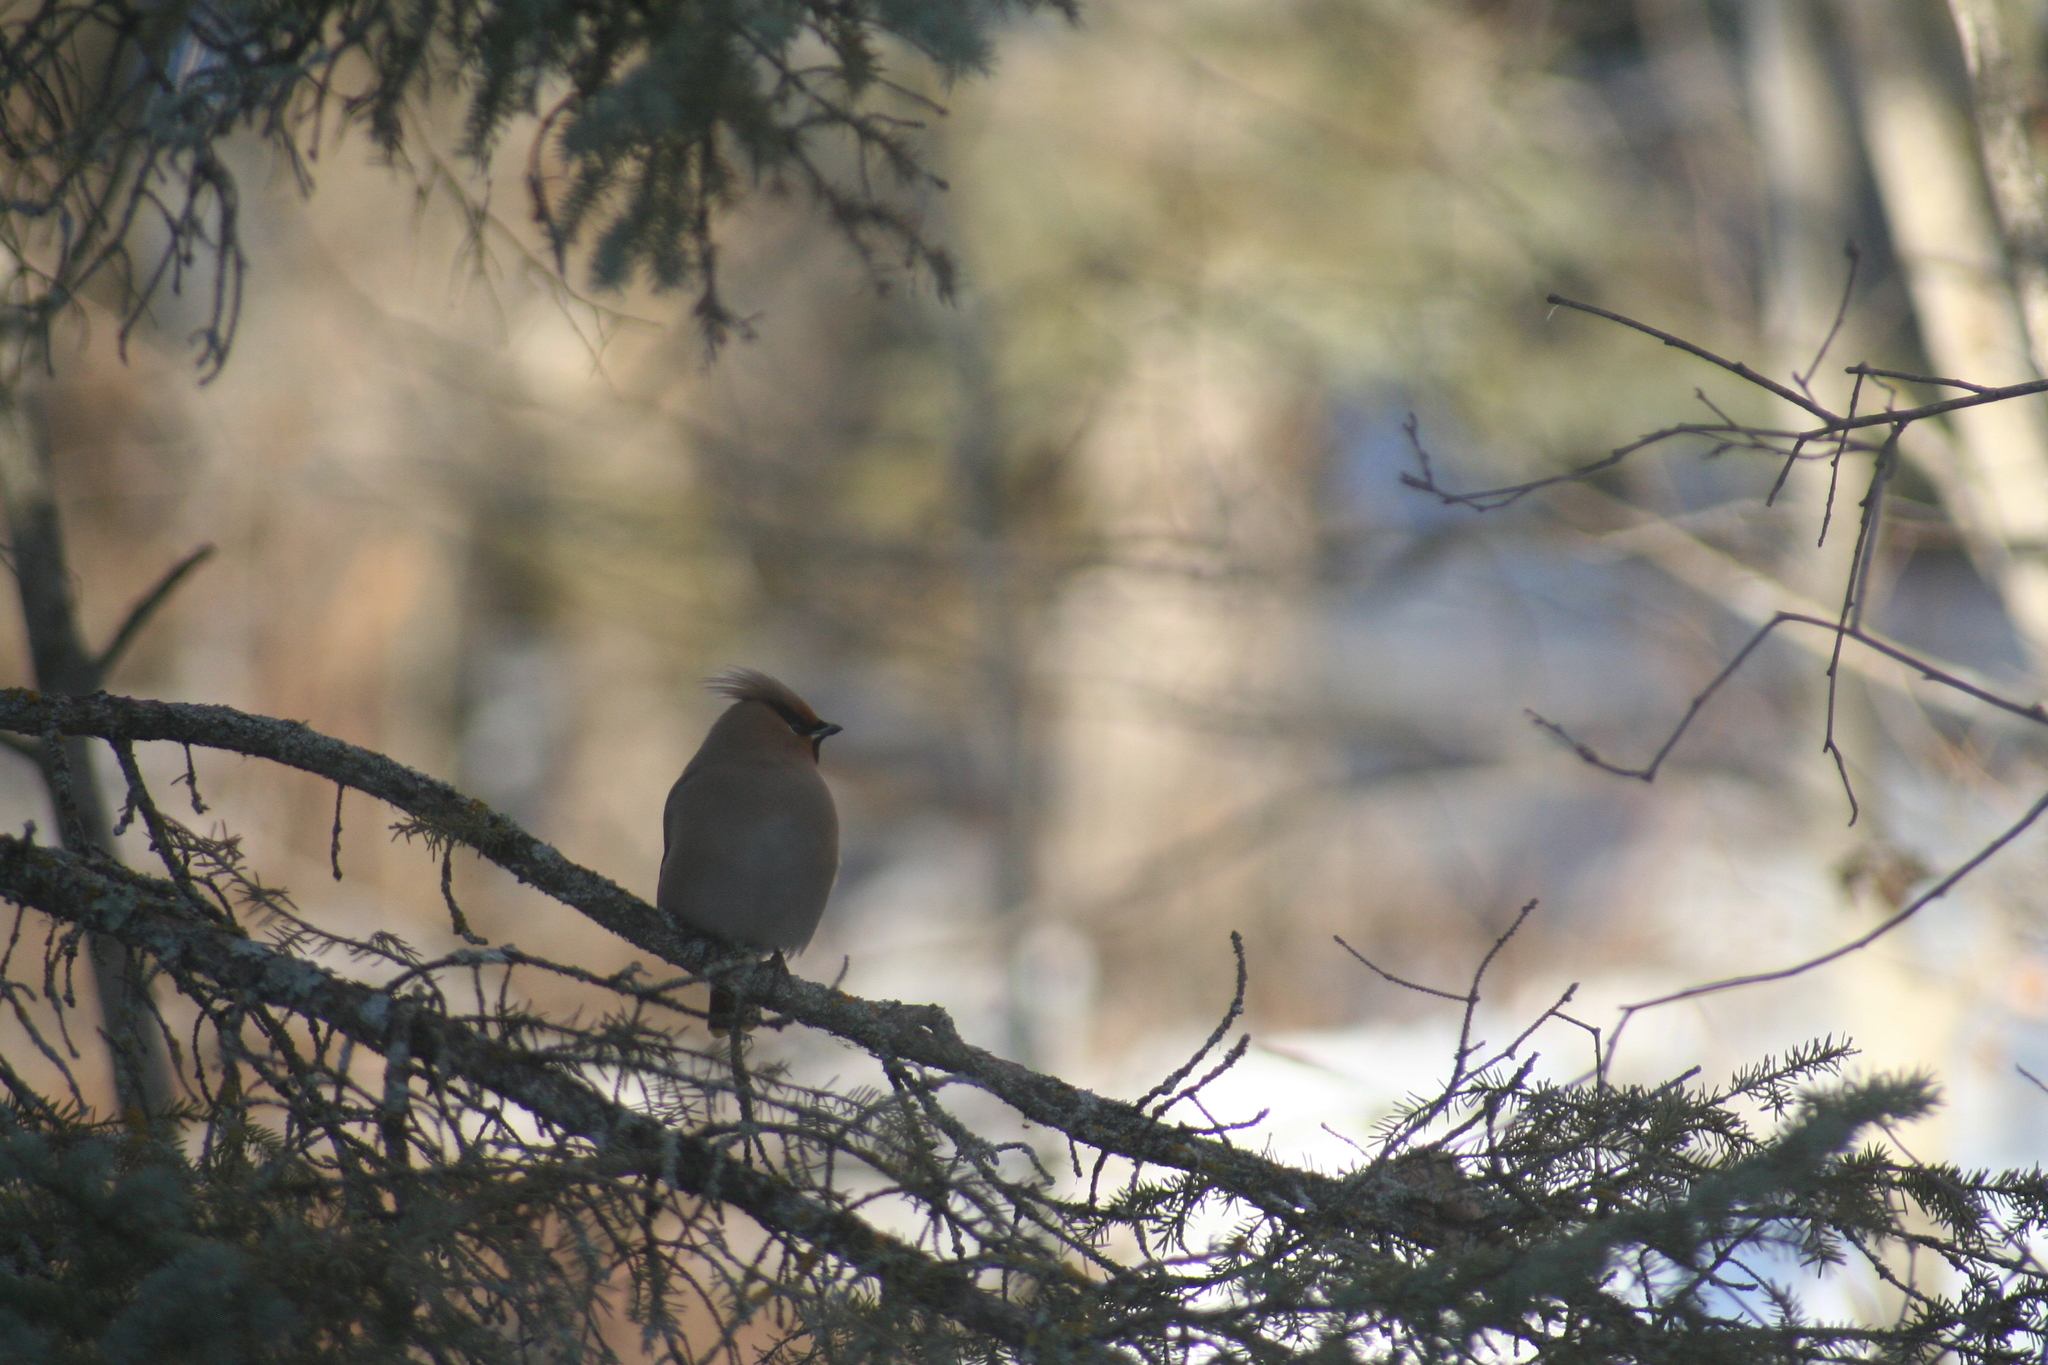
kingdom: Animalia
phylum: Chordata
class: Aves
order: Passeriformes
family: Bombycillidae
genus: Bombycilla
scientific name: Bombycilla garrulus
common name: Bohemian waxwing
